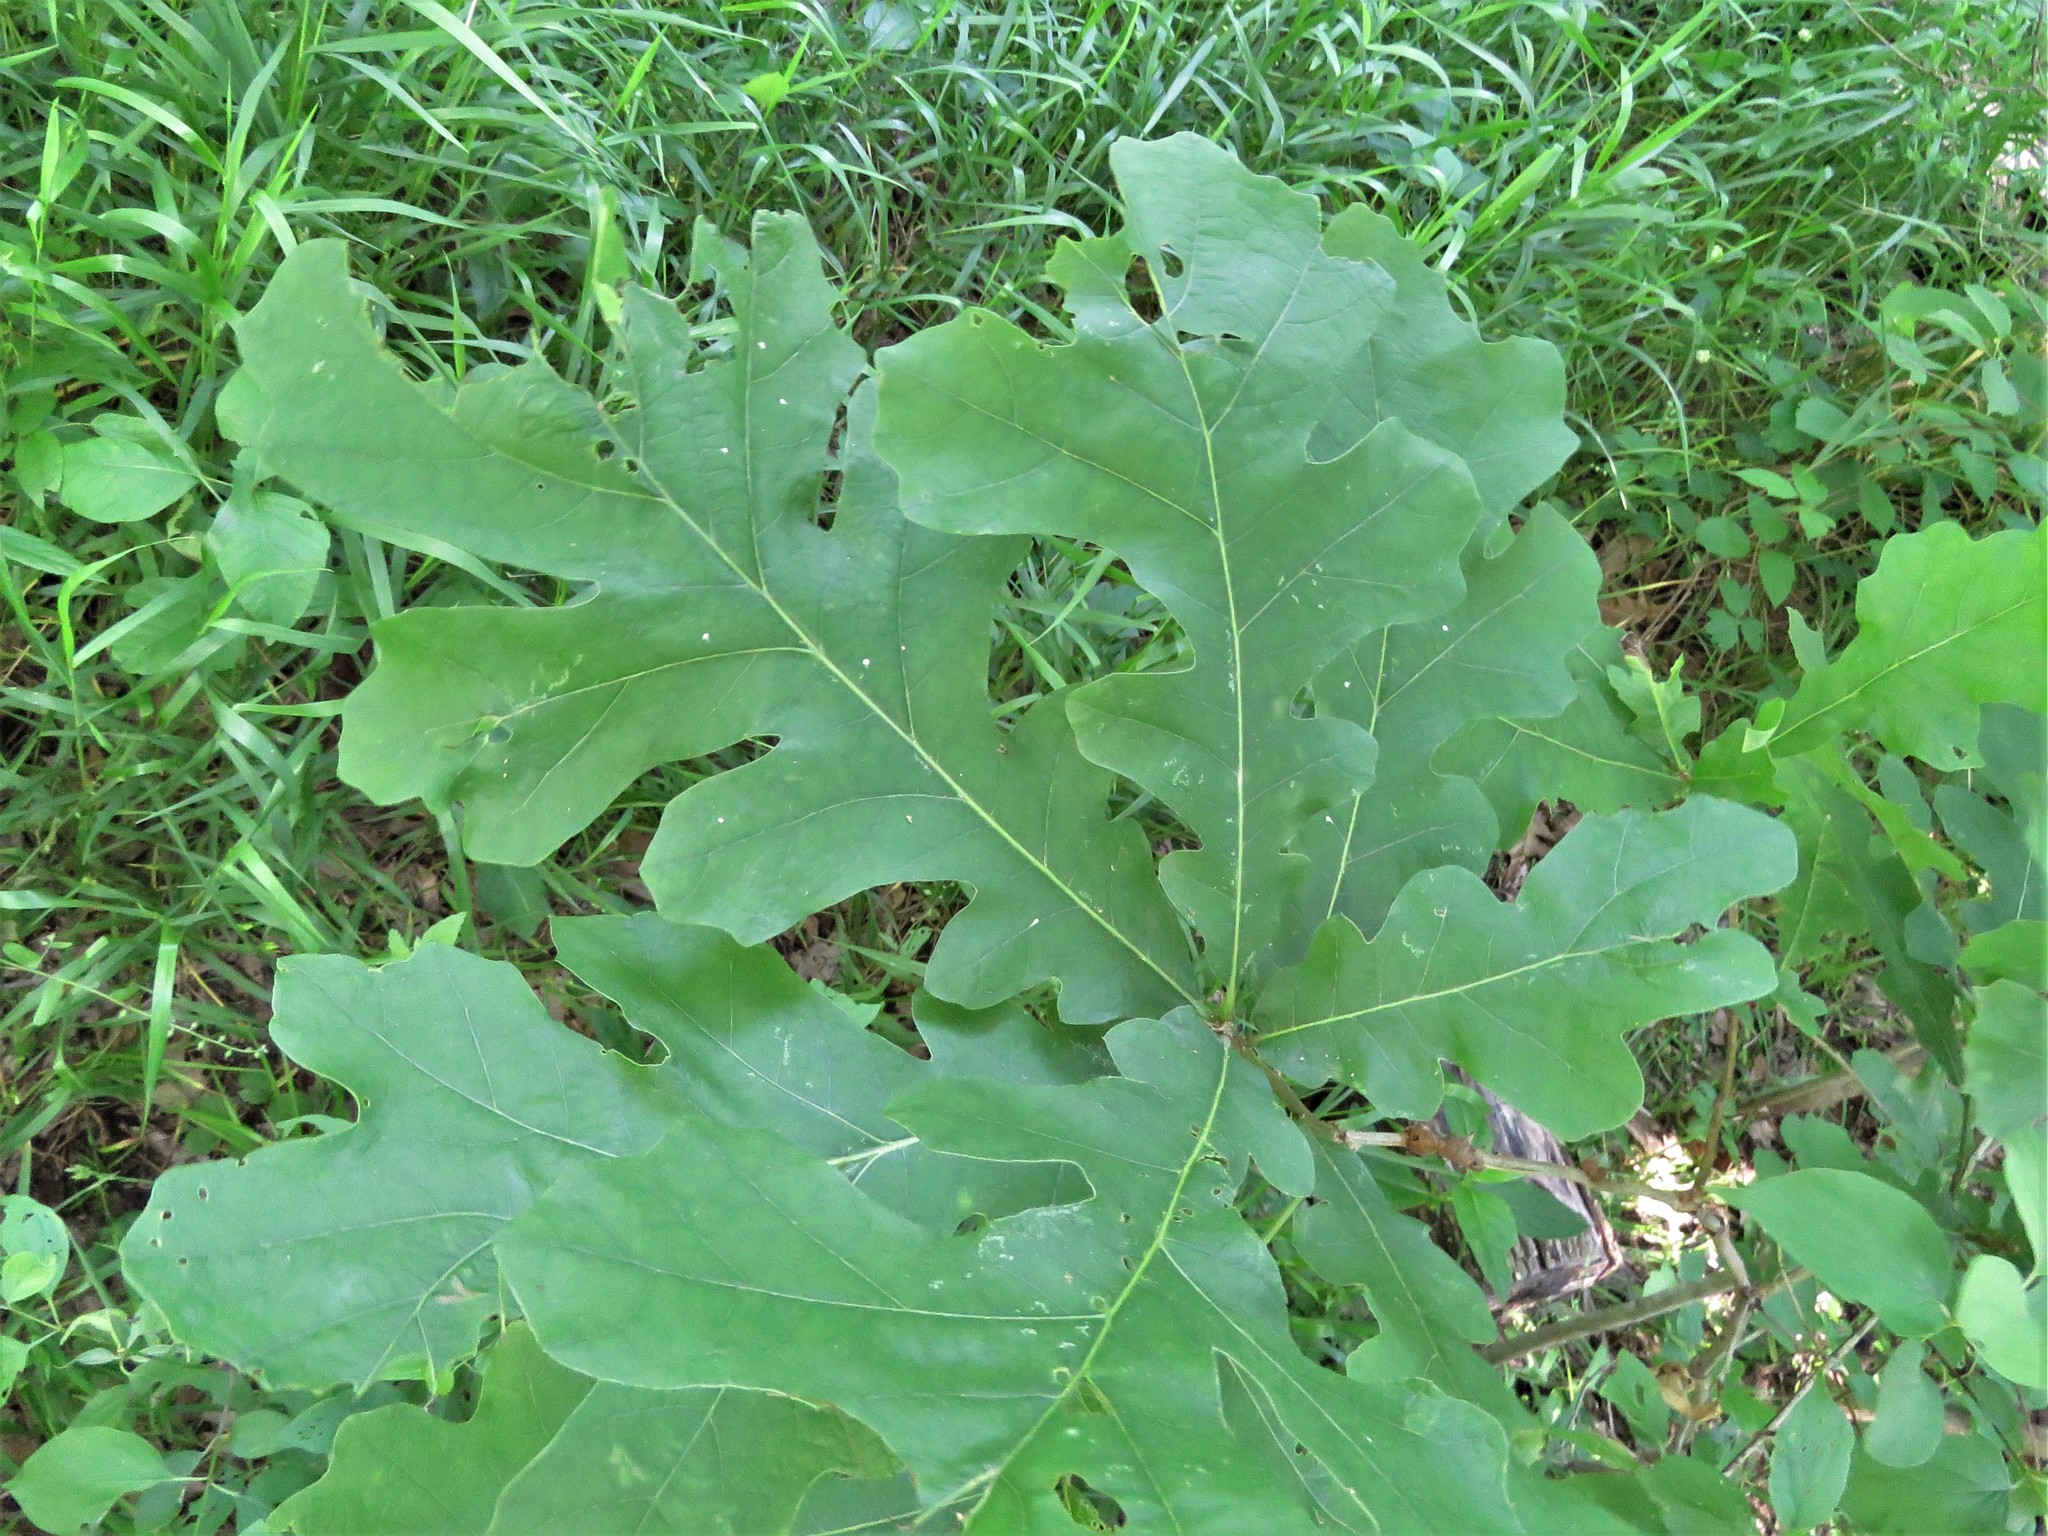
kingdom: Plantae
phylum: Tracheophyta
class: Magnoliopsida
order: Fagales
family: Fagaceae
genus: Quercus
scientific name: Quercus macrocarpa
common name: Bur oak
